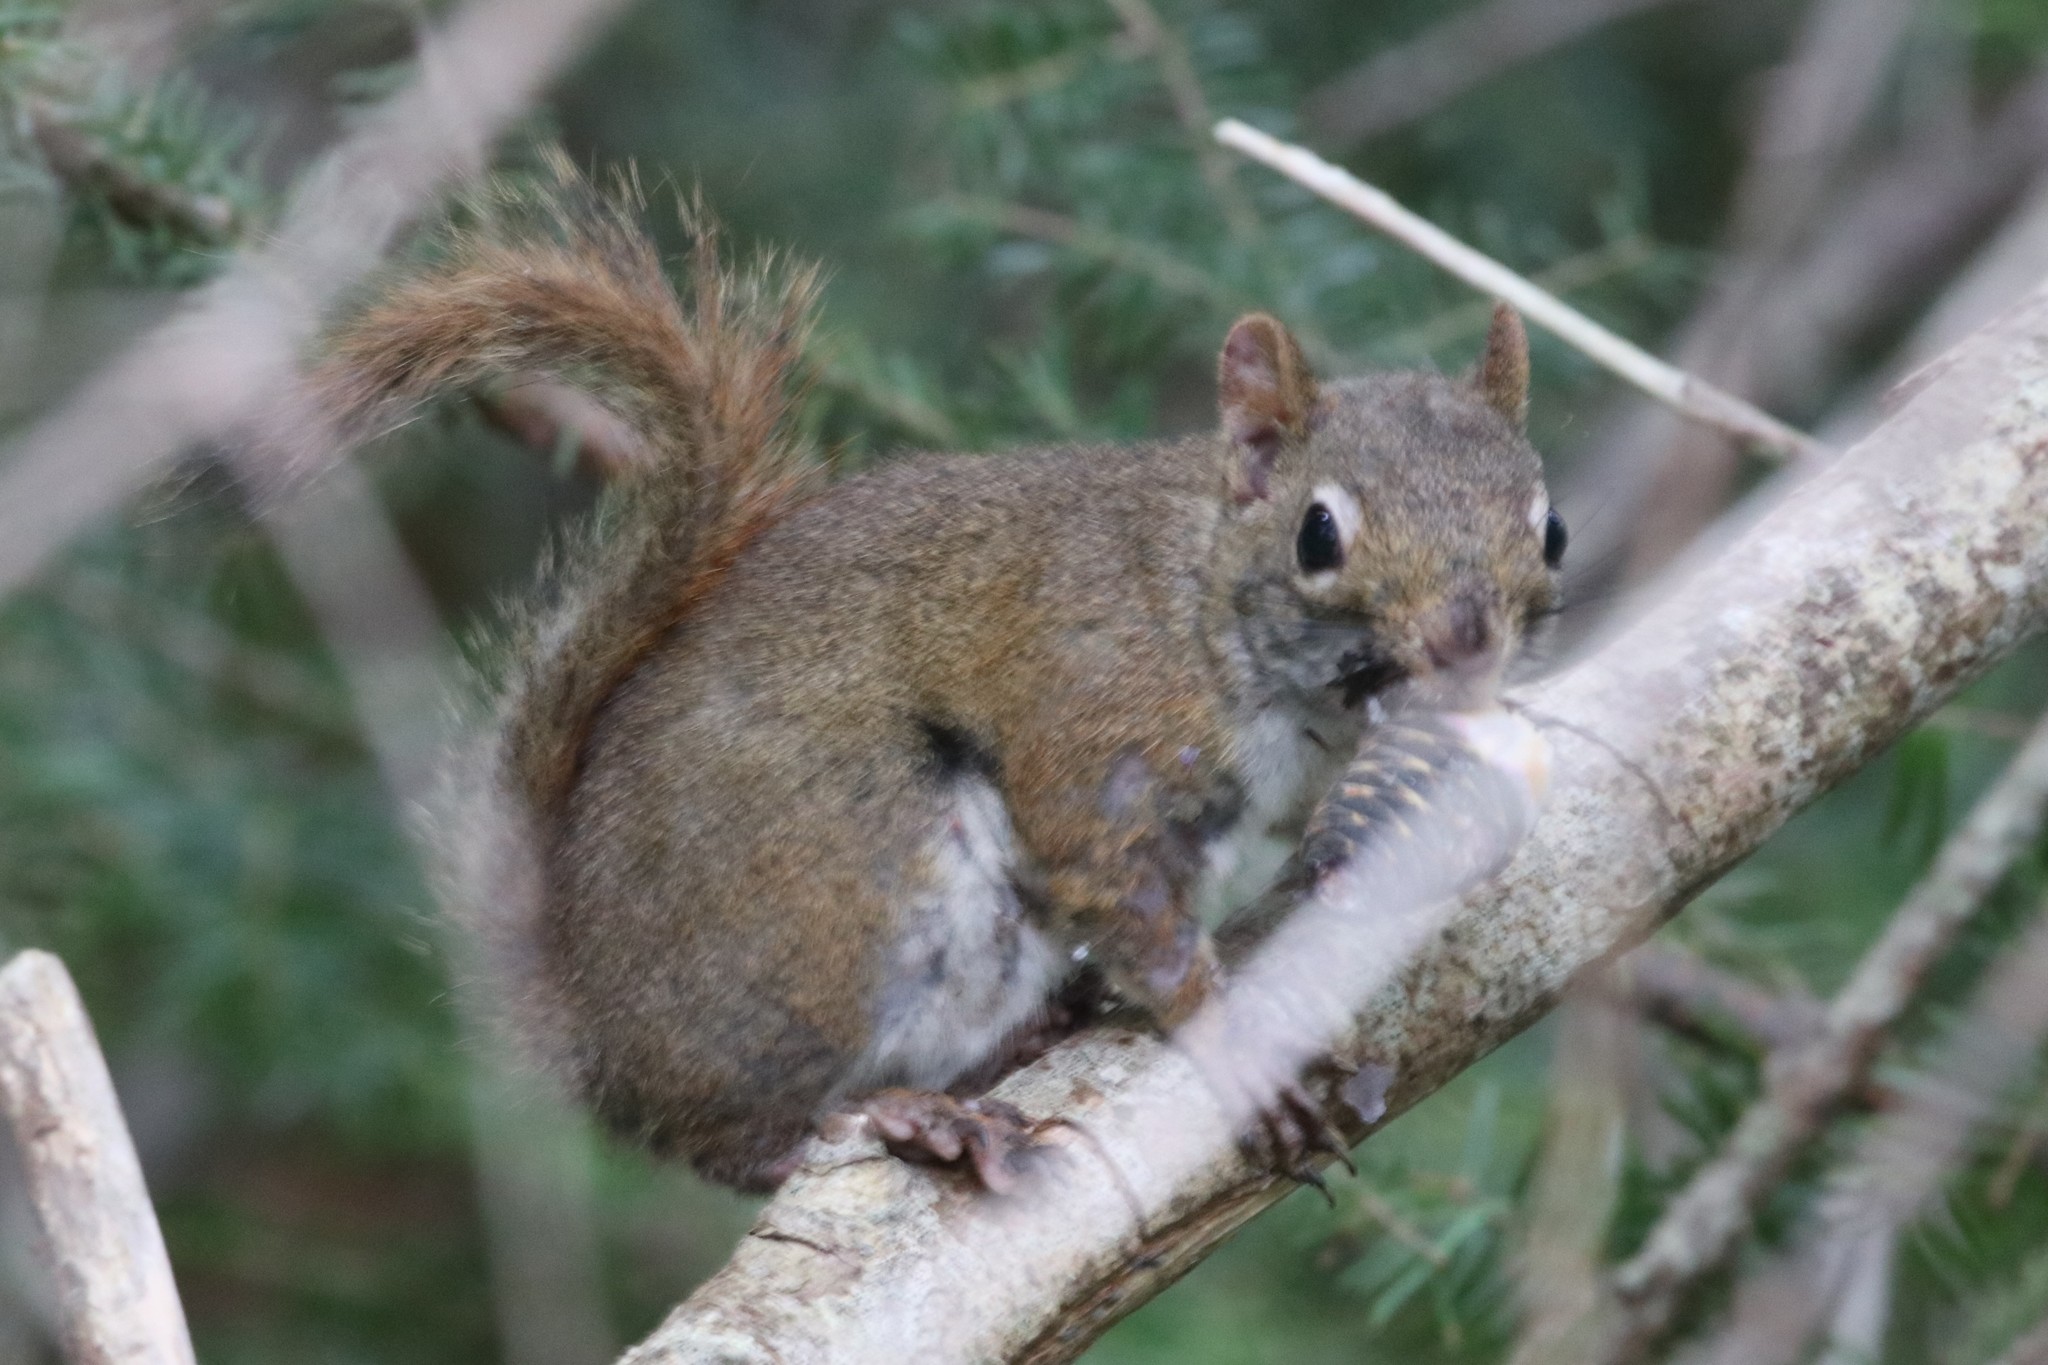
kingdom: Animalia
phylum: Chordata
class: Mammalia
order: Rodentia
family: Sciuridae
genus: Tamiasciurus
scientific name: Tamiasciurus hudsonicus
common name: Red squirrel
